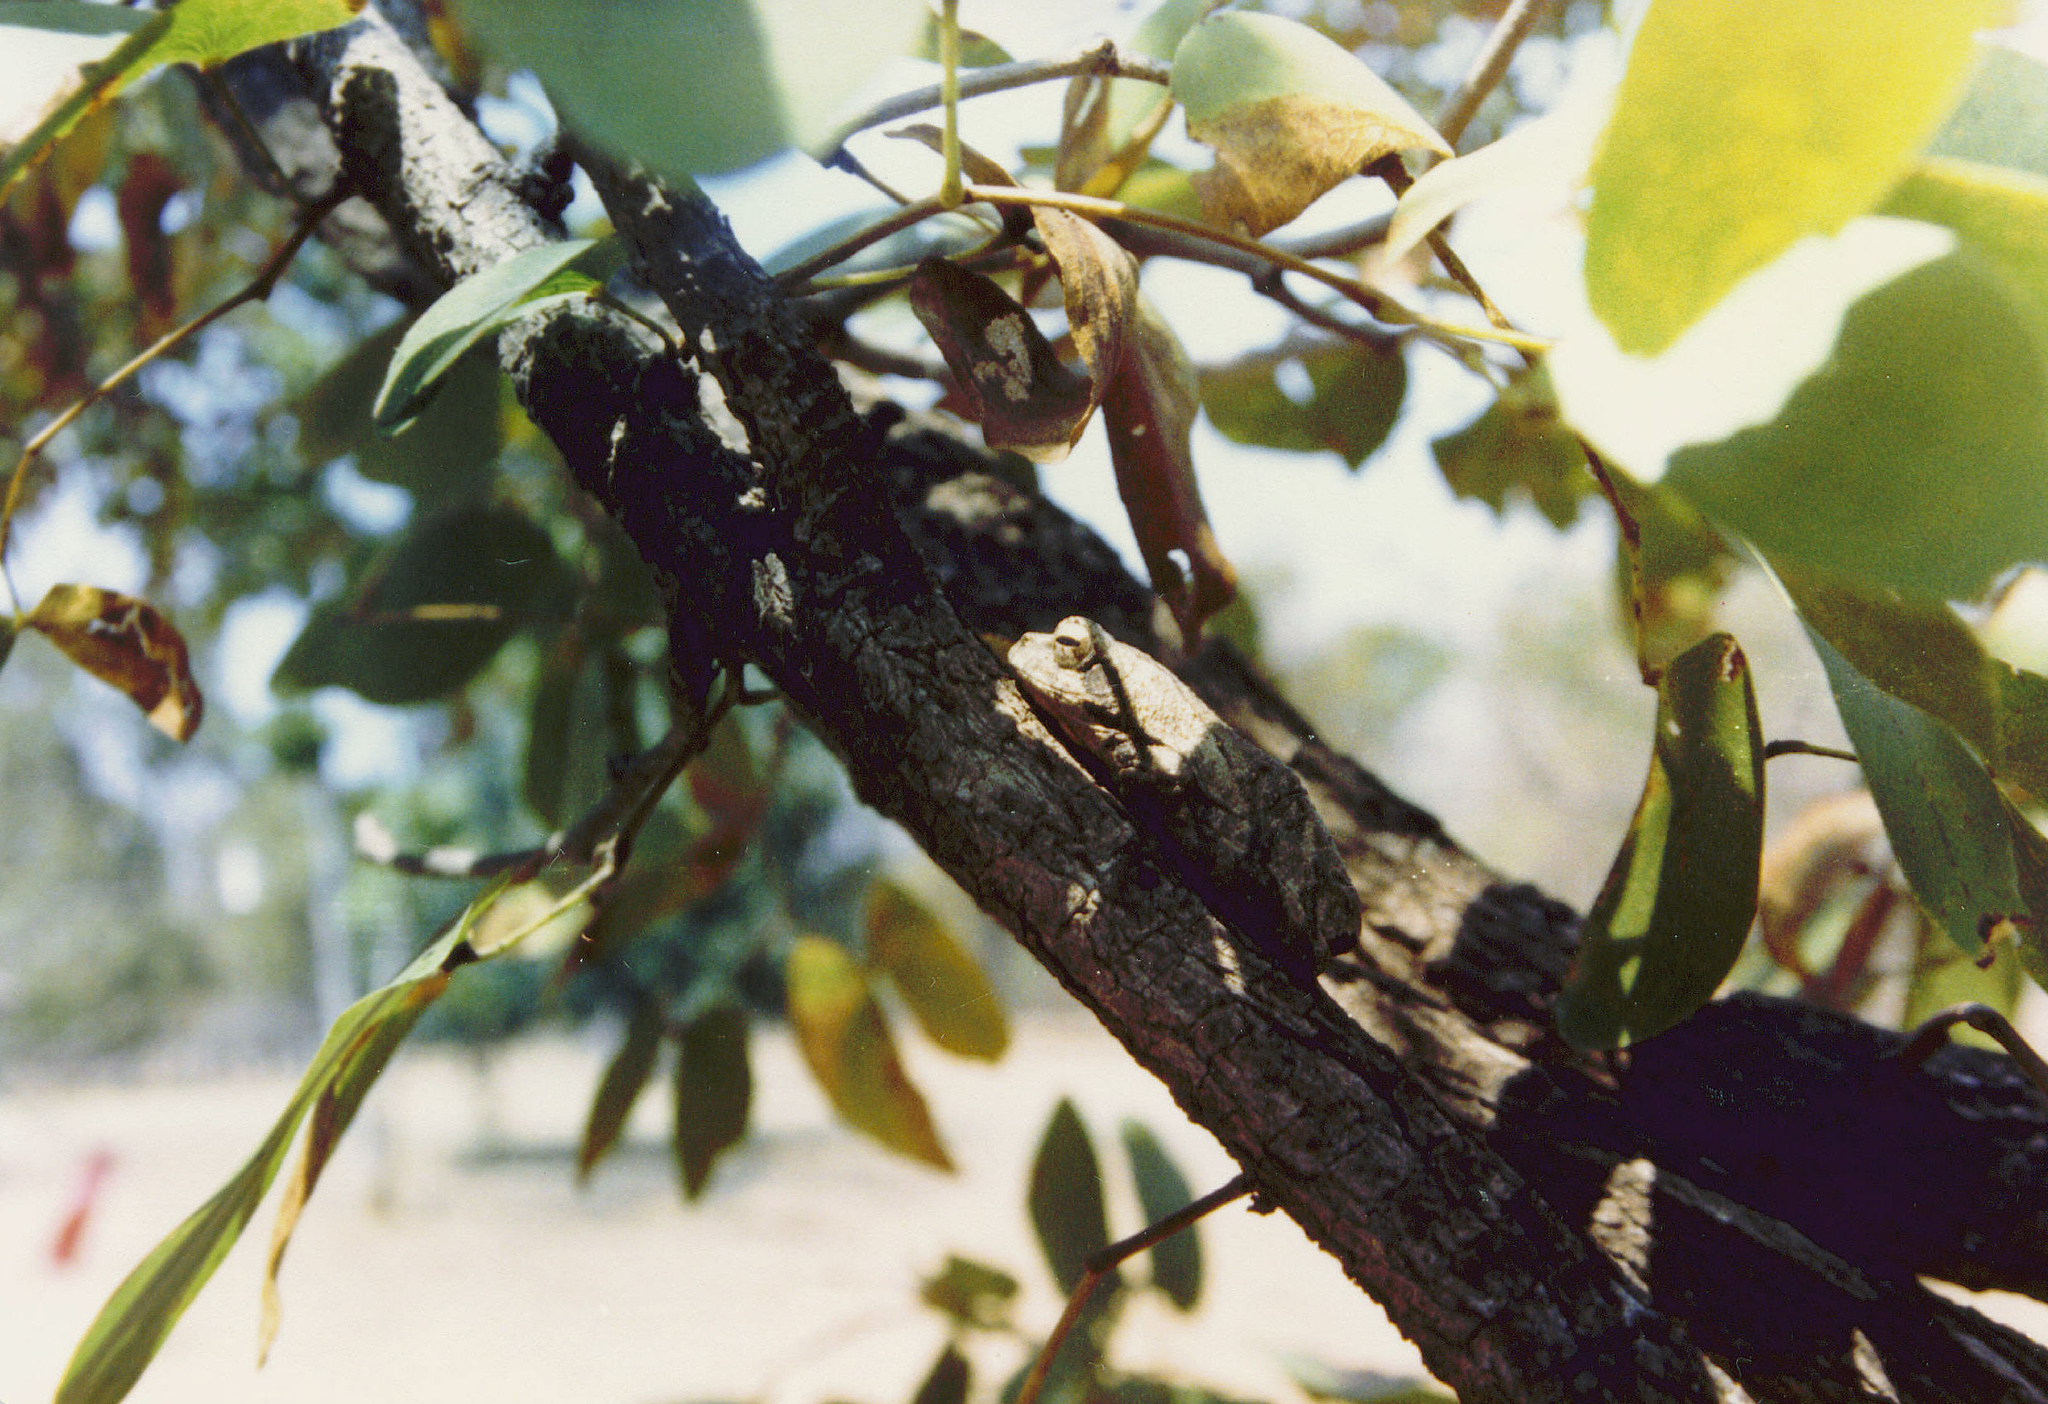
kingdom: Animalia
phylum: Chordata
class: Amphibia
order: Anura
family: Rhacophoridae
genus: Chiromantis
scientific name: Chiromantis xerampelina
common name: African gray treefrog
